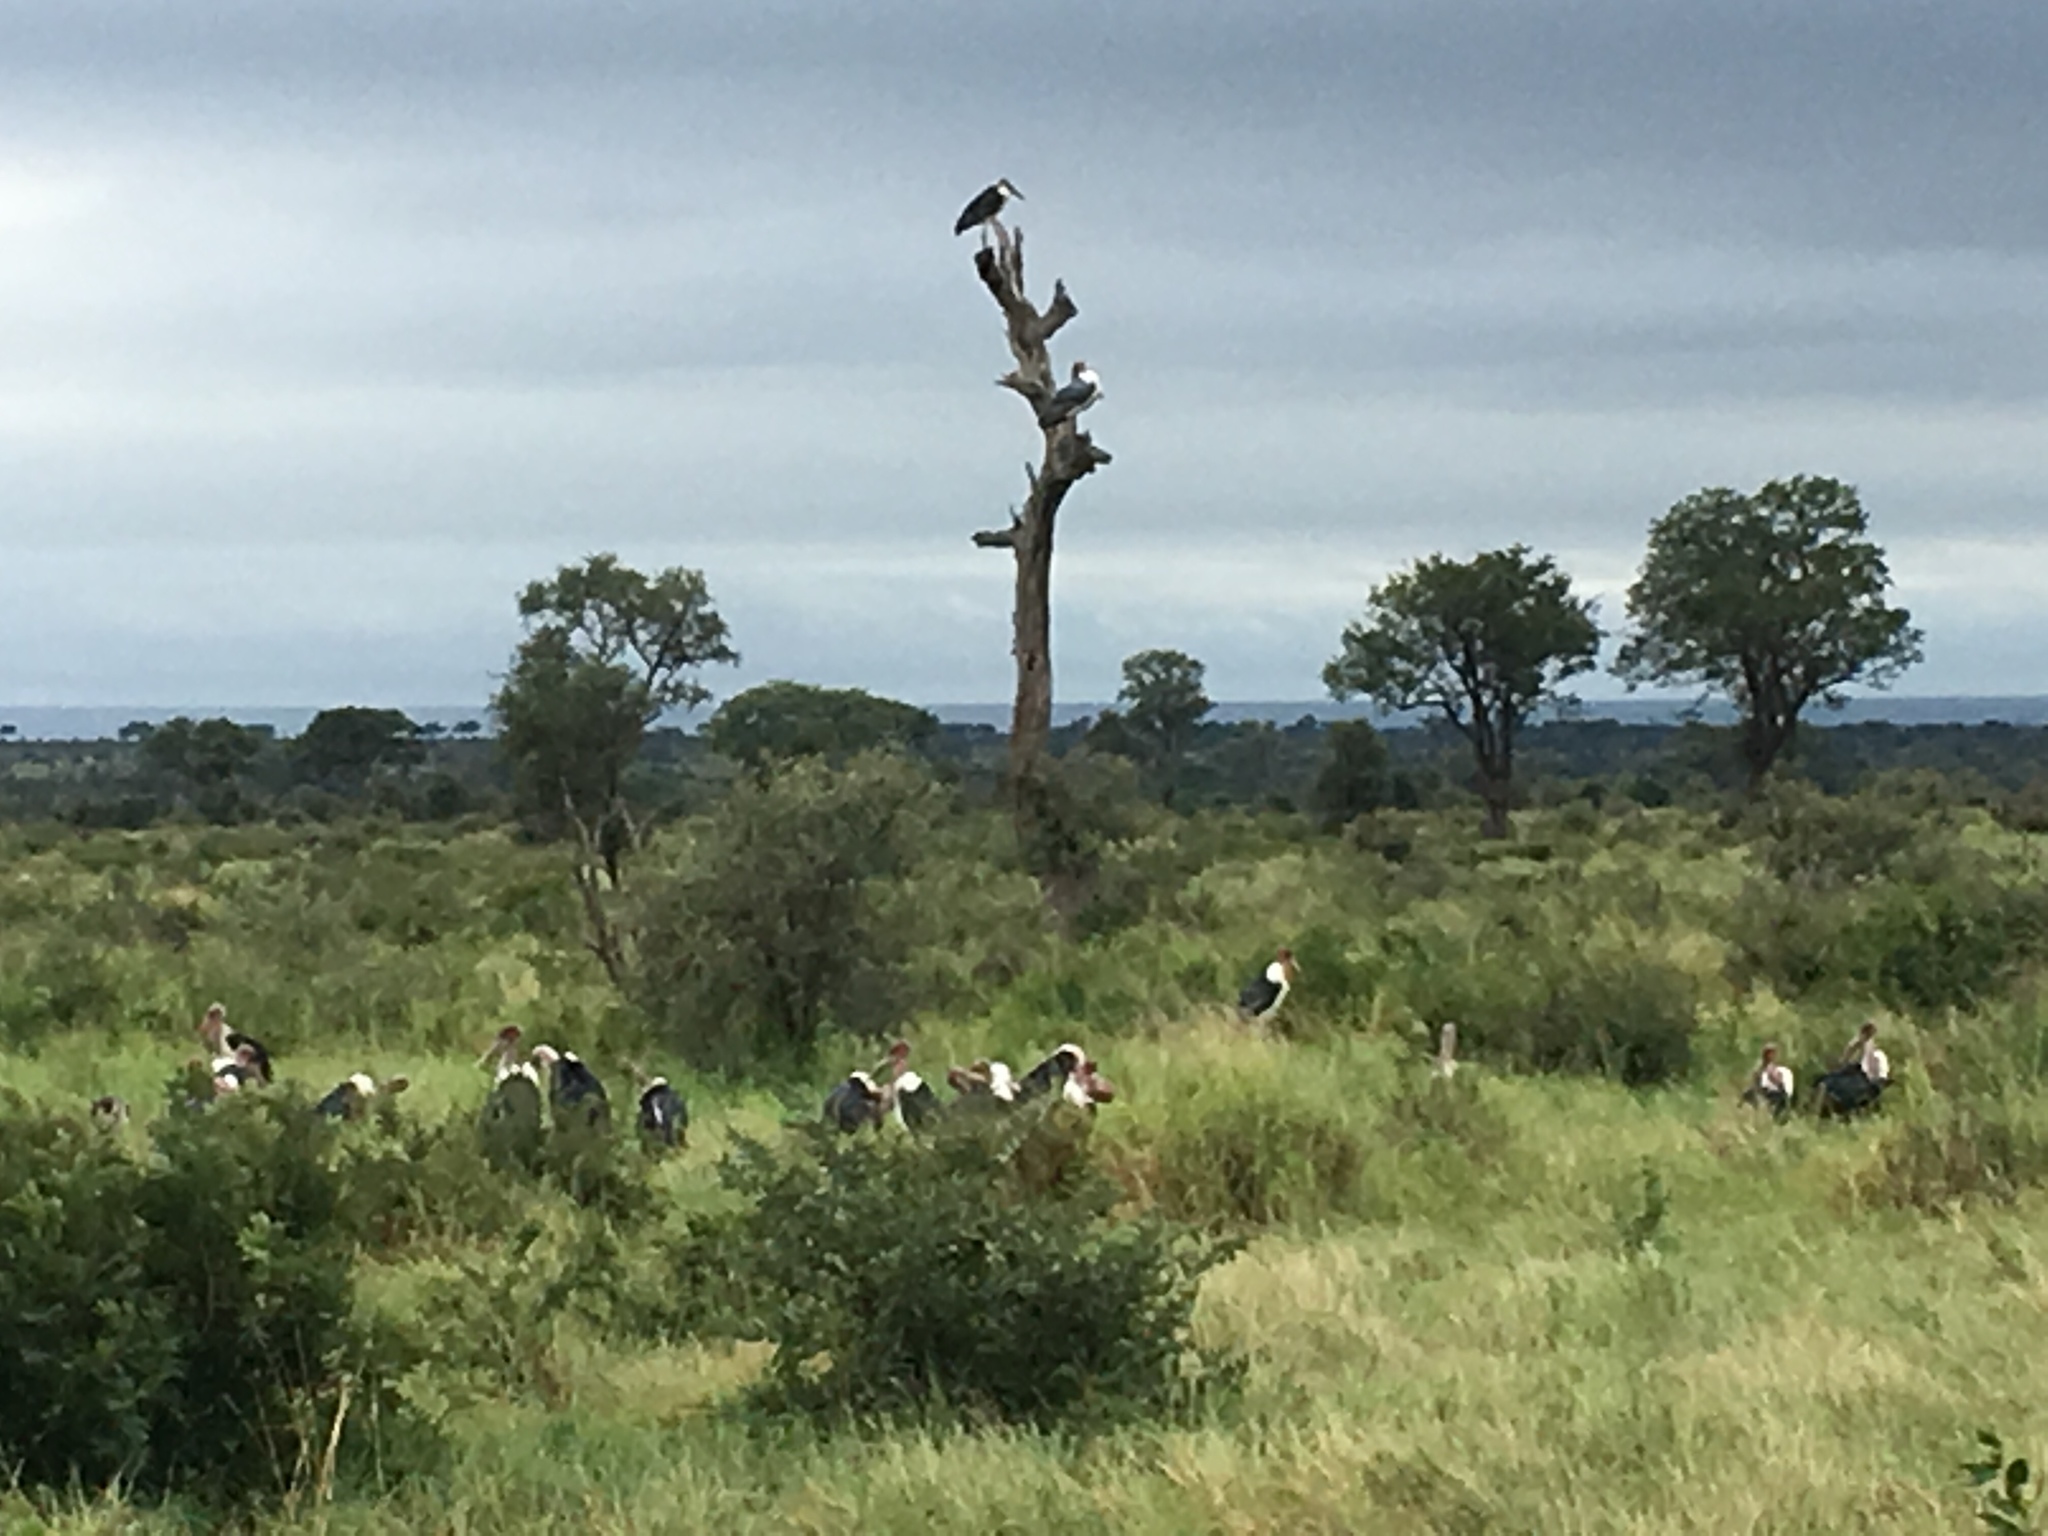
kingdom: Animalia
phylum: Chordata
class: Aves
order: Ciconiiformes
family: Ciconiidae
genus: Leptoptilos
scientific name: Leptoptilos crumenifer
